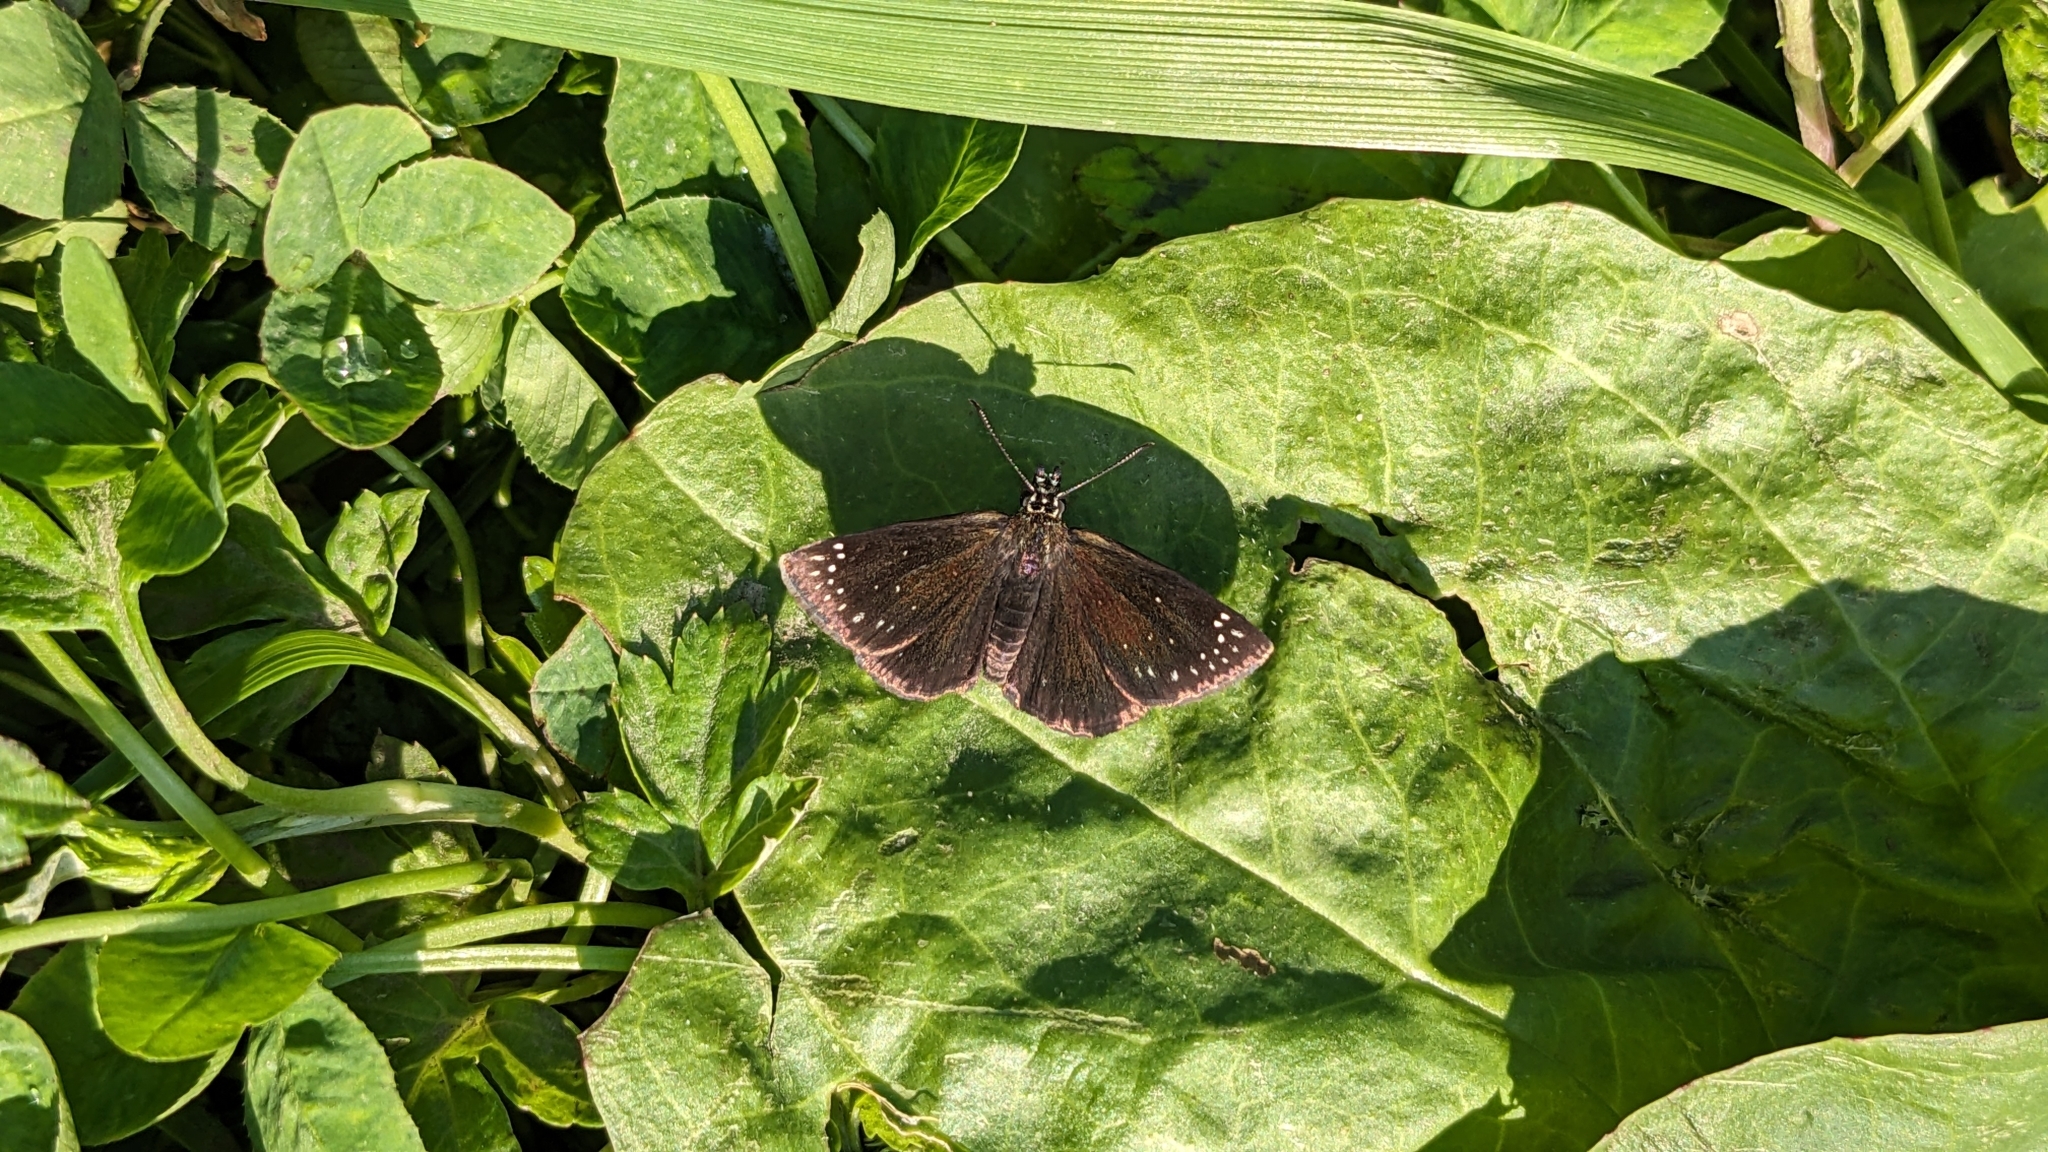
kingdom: Animalia
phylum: Arthropoda
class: Insecta
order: Lepidoptera
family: Hesperiidae
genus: Pholisora
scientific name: Pholisora catullus
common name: Common sootywing
